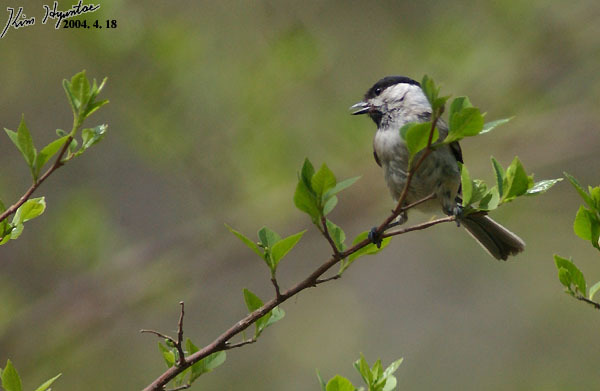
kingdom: Animalia
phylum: Chordata
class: Aves
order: Passeriformes
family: Paridae
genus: Poecile
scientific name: Poecile palustris
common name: Marsh tit
